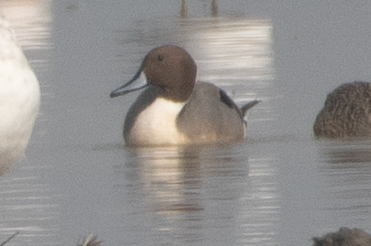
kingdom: Animalia
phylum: Chordata
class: Aves
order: Anseriformes
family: Anatidae
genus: Anas
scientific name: Anas acuta
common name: Northern pintail
